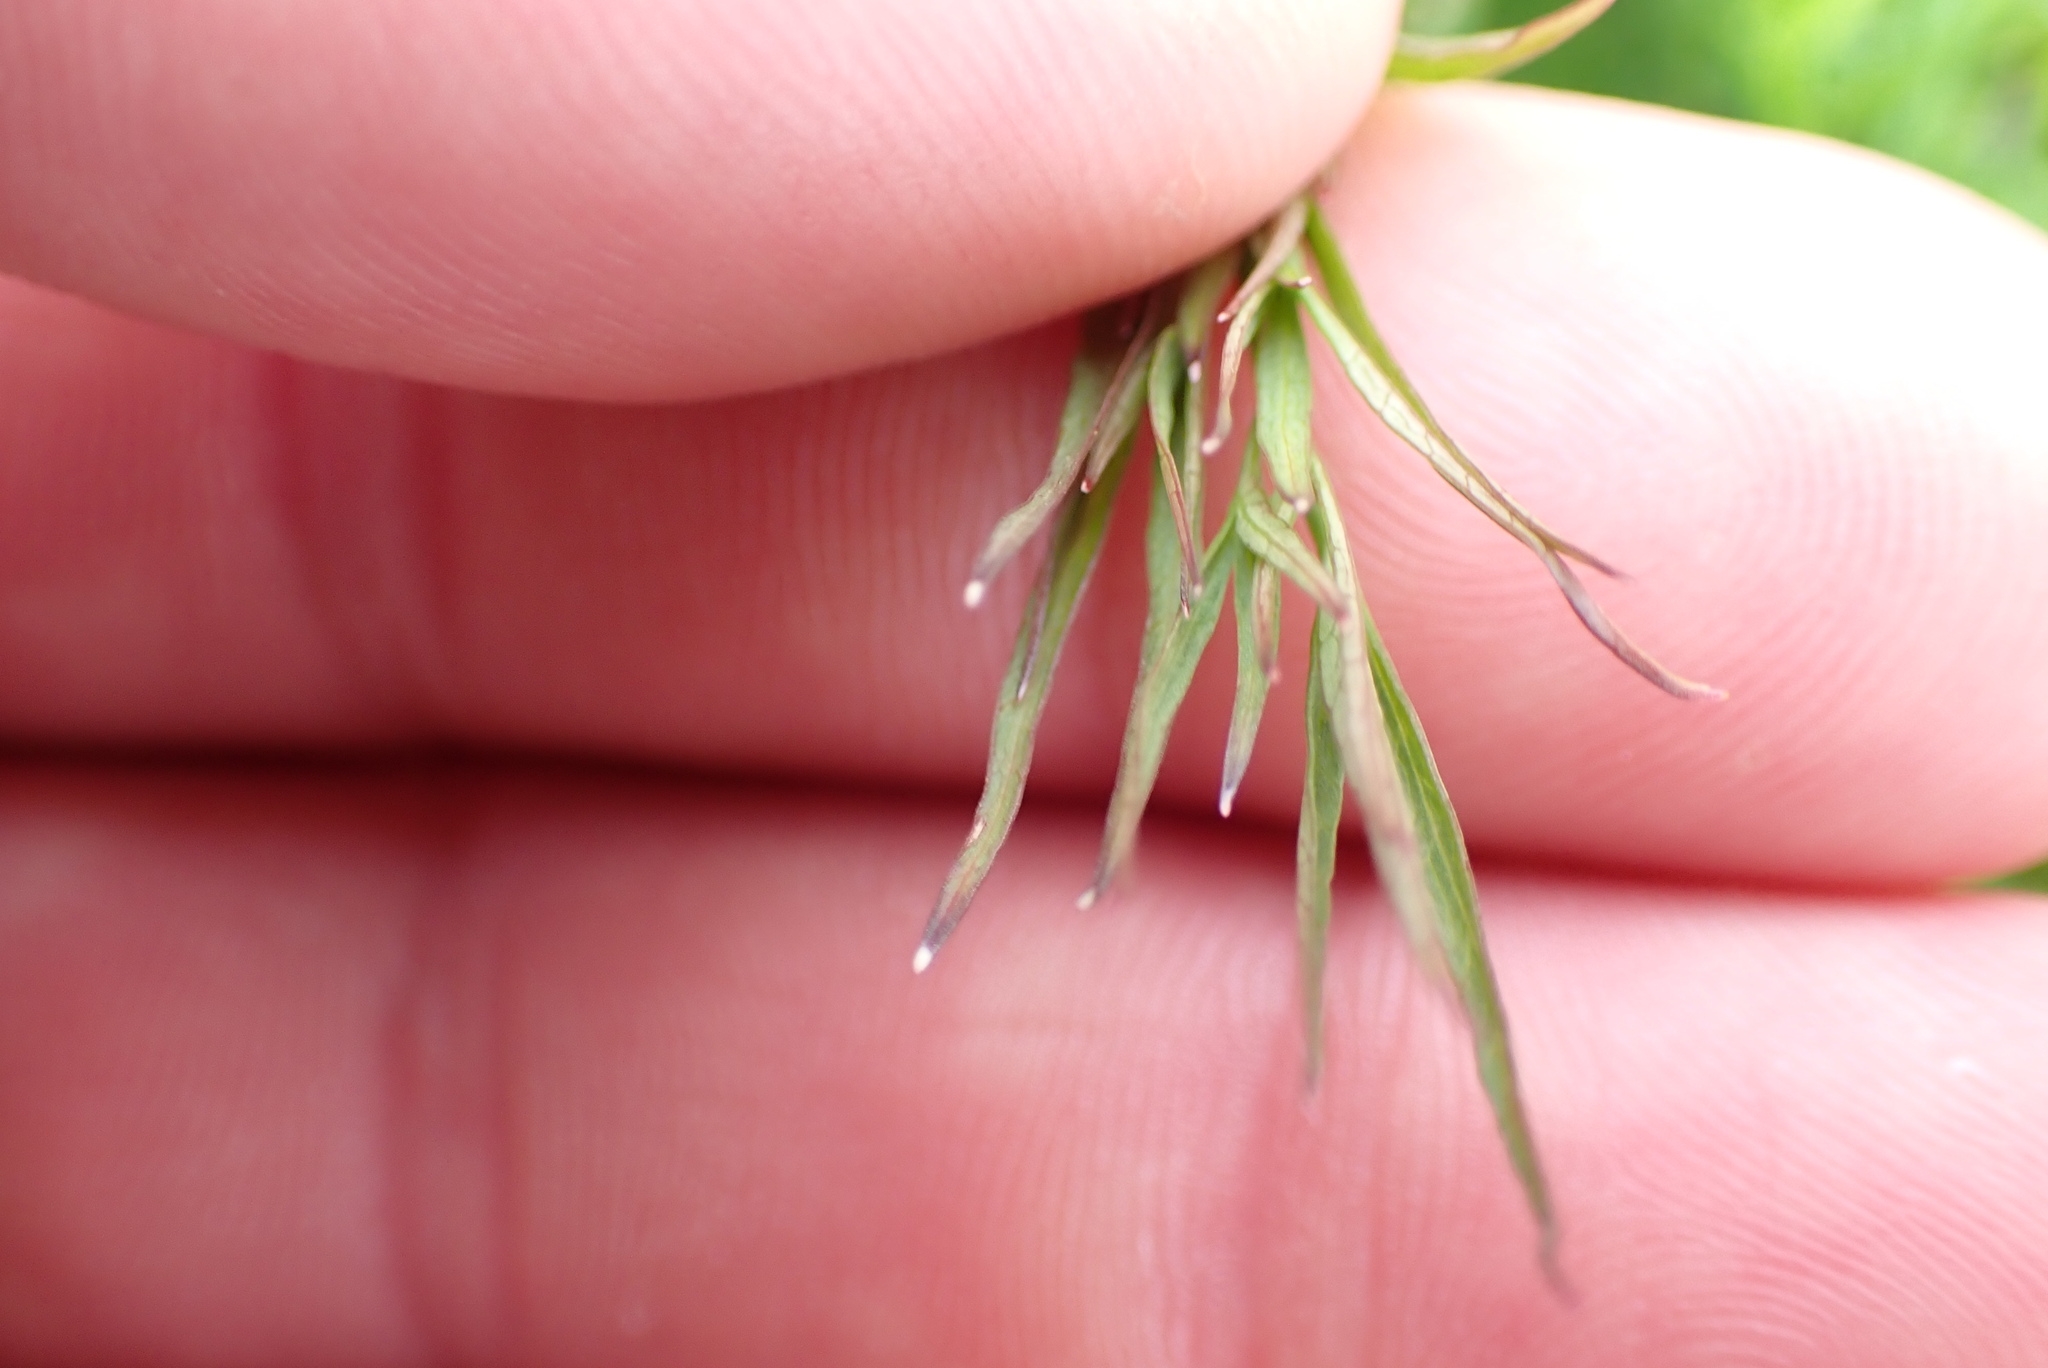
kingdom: Plantae
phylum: Tracheophyta
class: Magnoliopsida
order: Apiales
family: Apiaceae
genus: Perideridia
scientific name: Perideridia gairdneri
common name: False caraway
